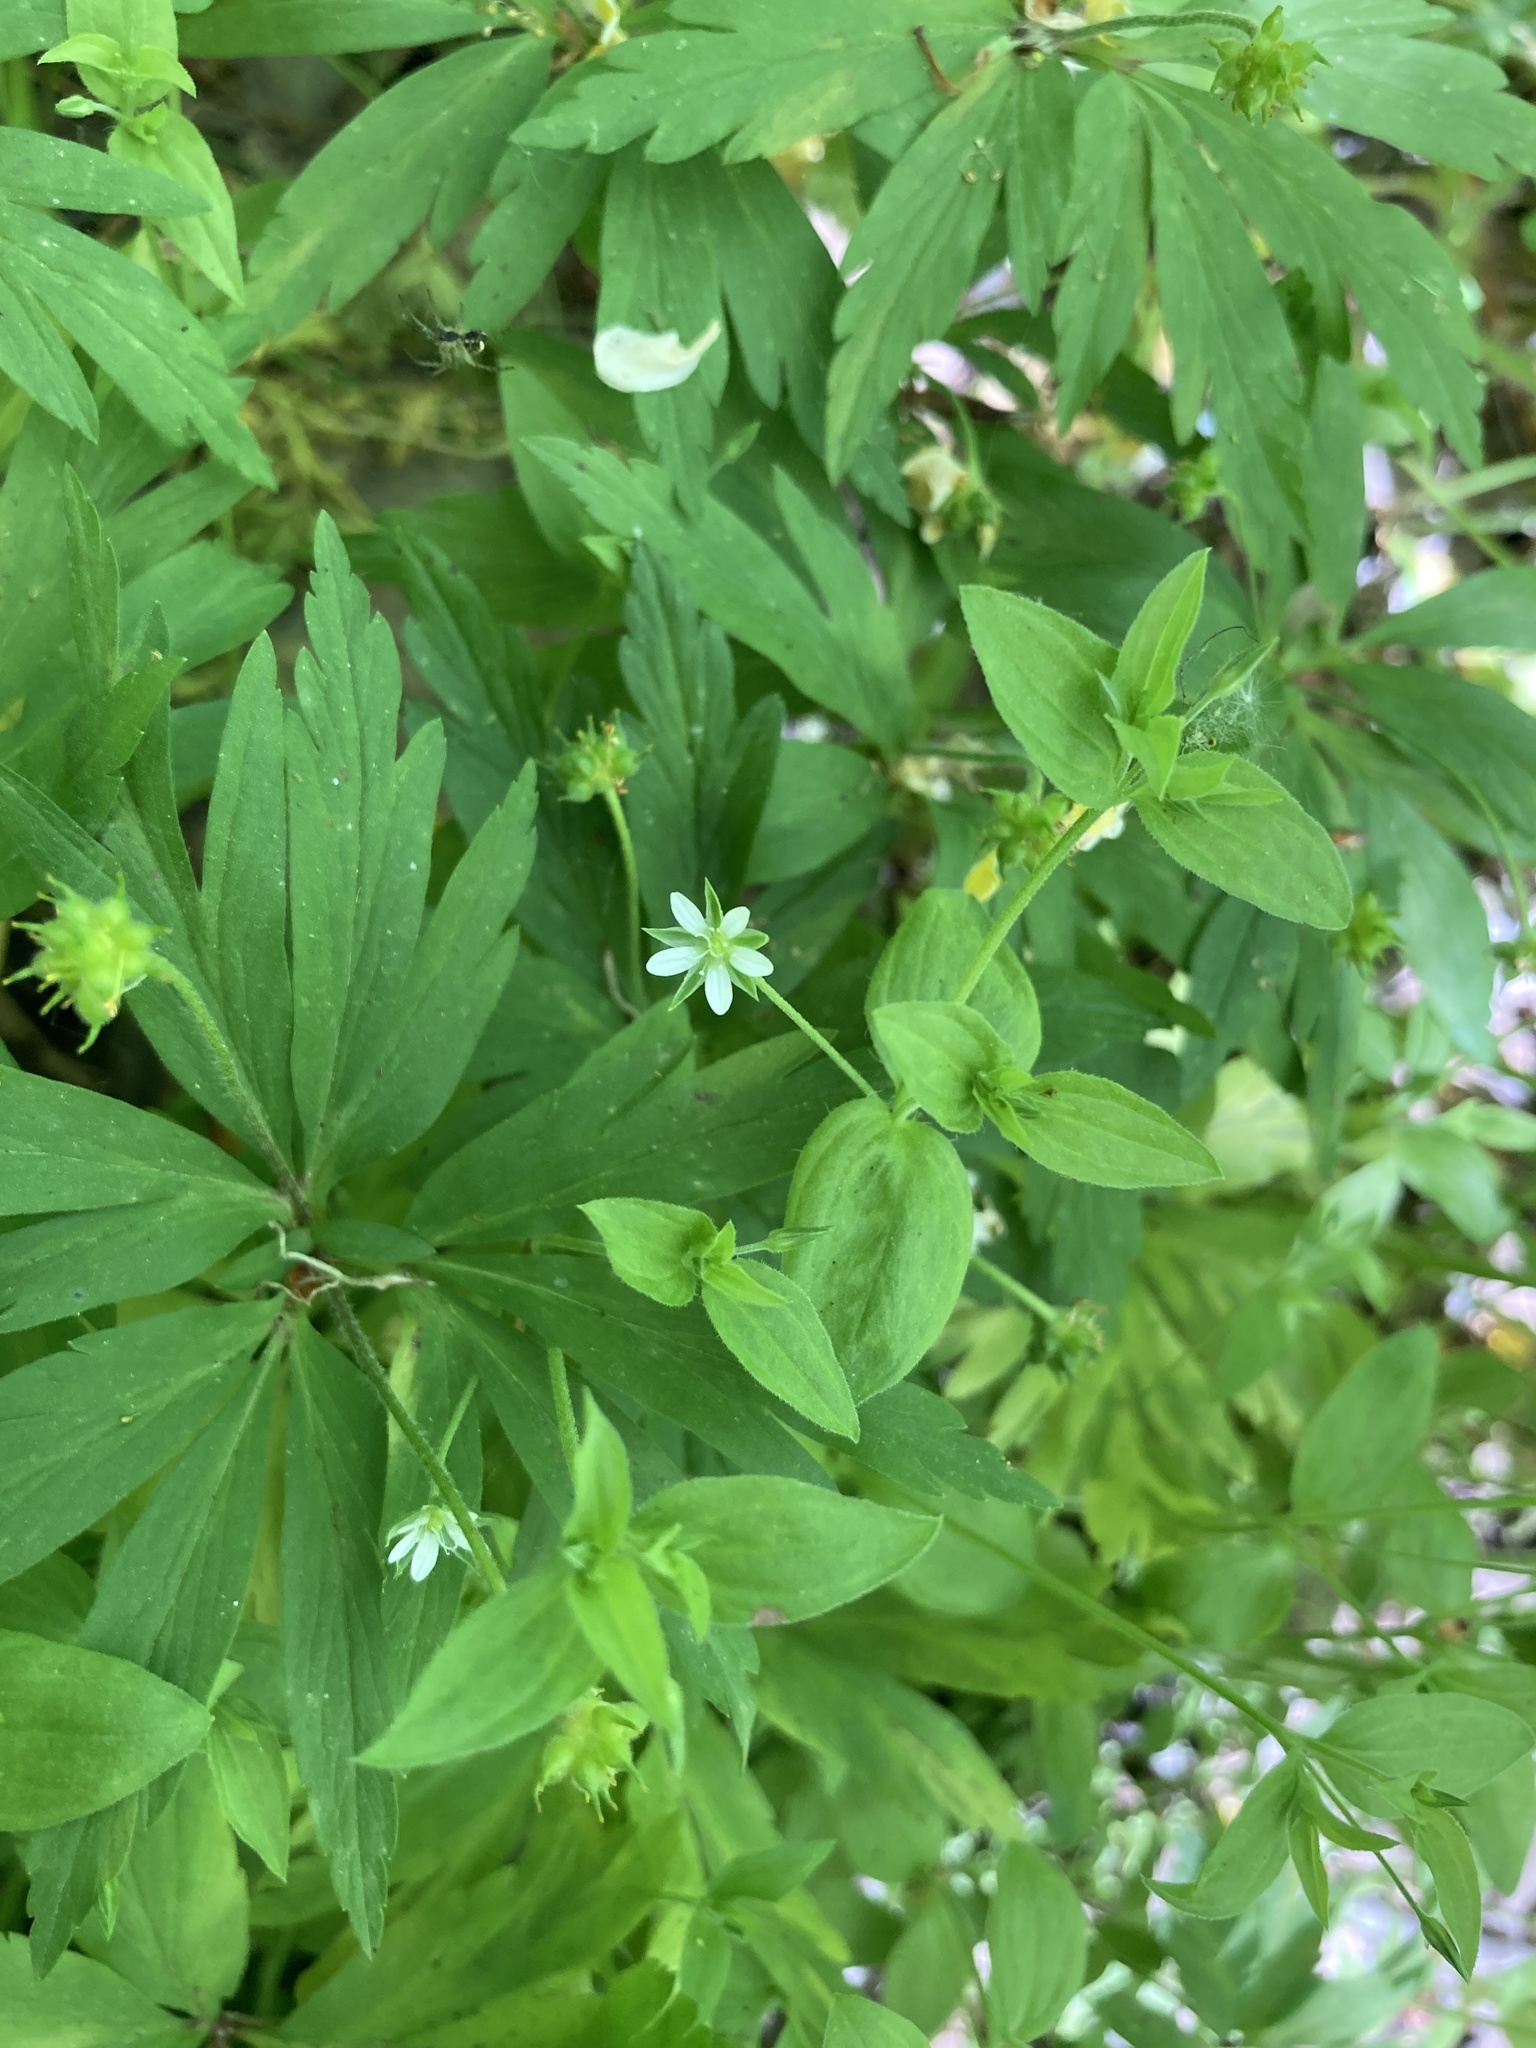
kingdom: Plantae
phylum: Tracheophyta
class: Magnoliopsida
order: Caryophyllales
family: Caryophyllaceae
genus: Moehringia
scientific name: Moehringia trinervia
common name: Three-nerved sandwort
